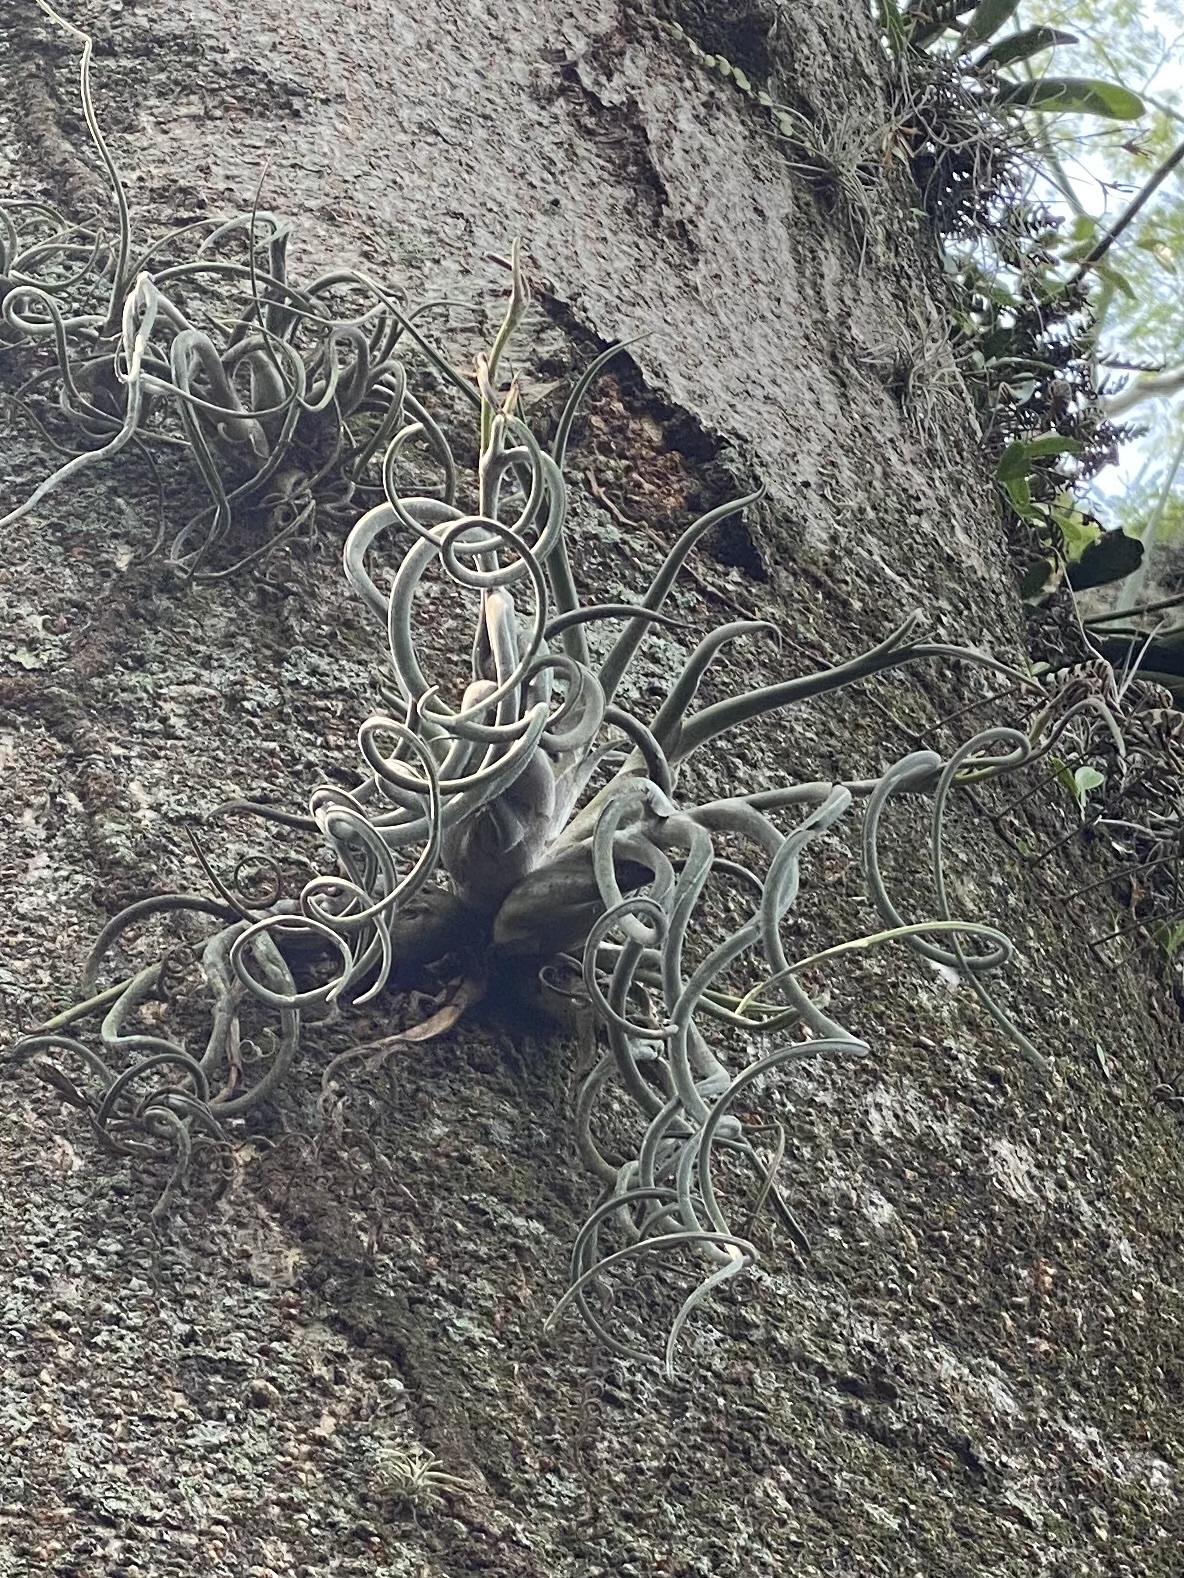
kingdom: Plantae
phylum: Tracheophyta
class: Liliopsida
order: Poales
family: Bromeliaceae
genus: Tillandsia
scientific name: Tillandsia caput-medusae
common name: Octopus plant
